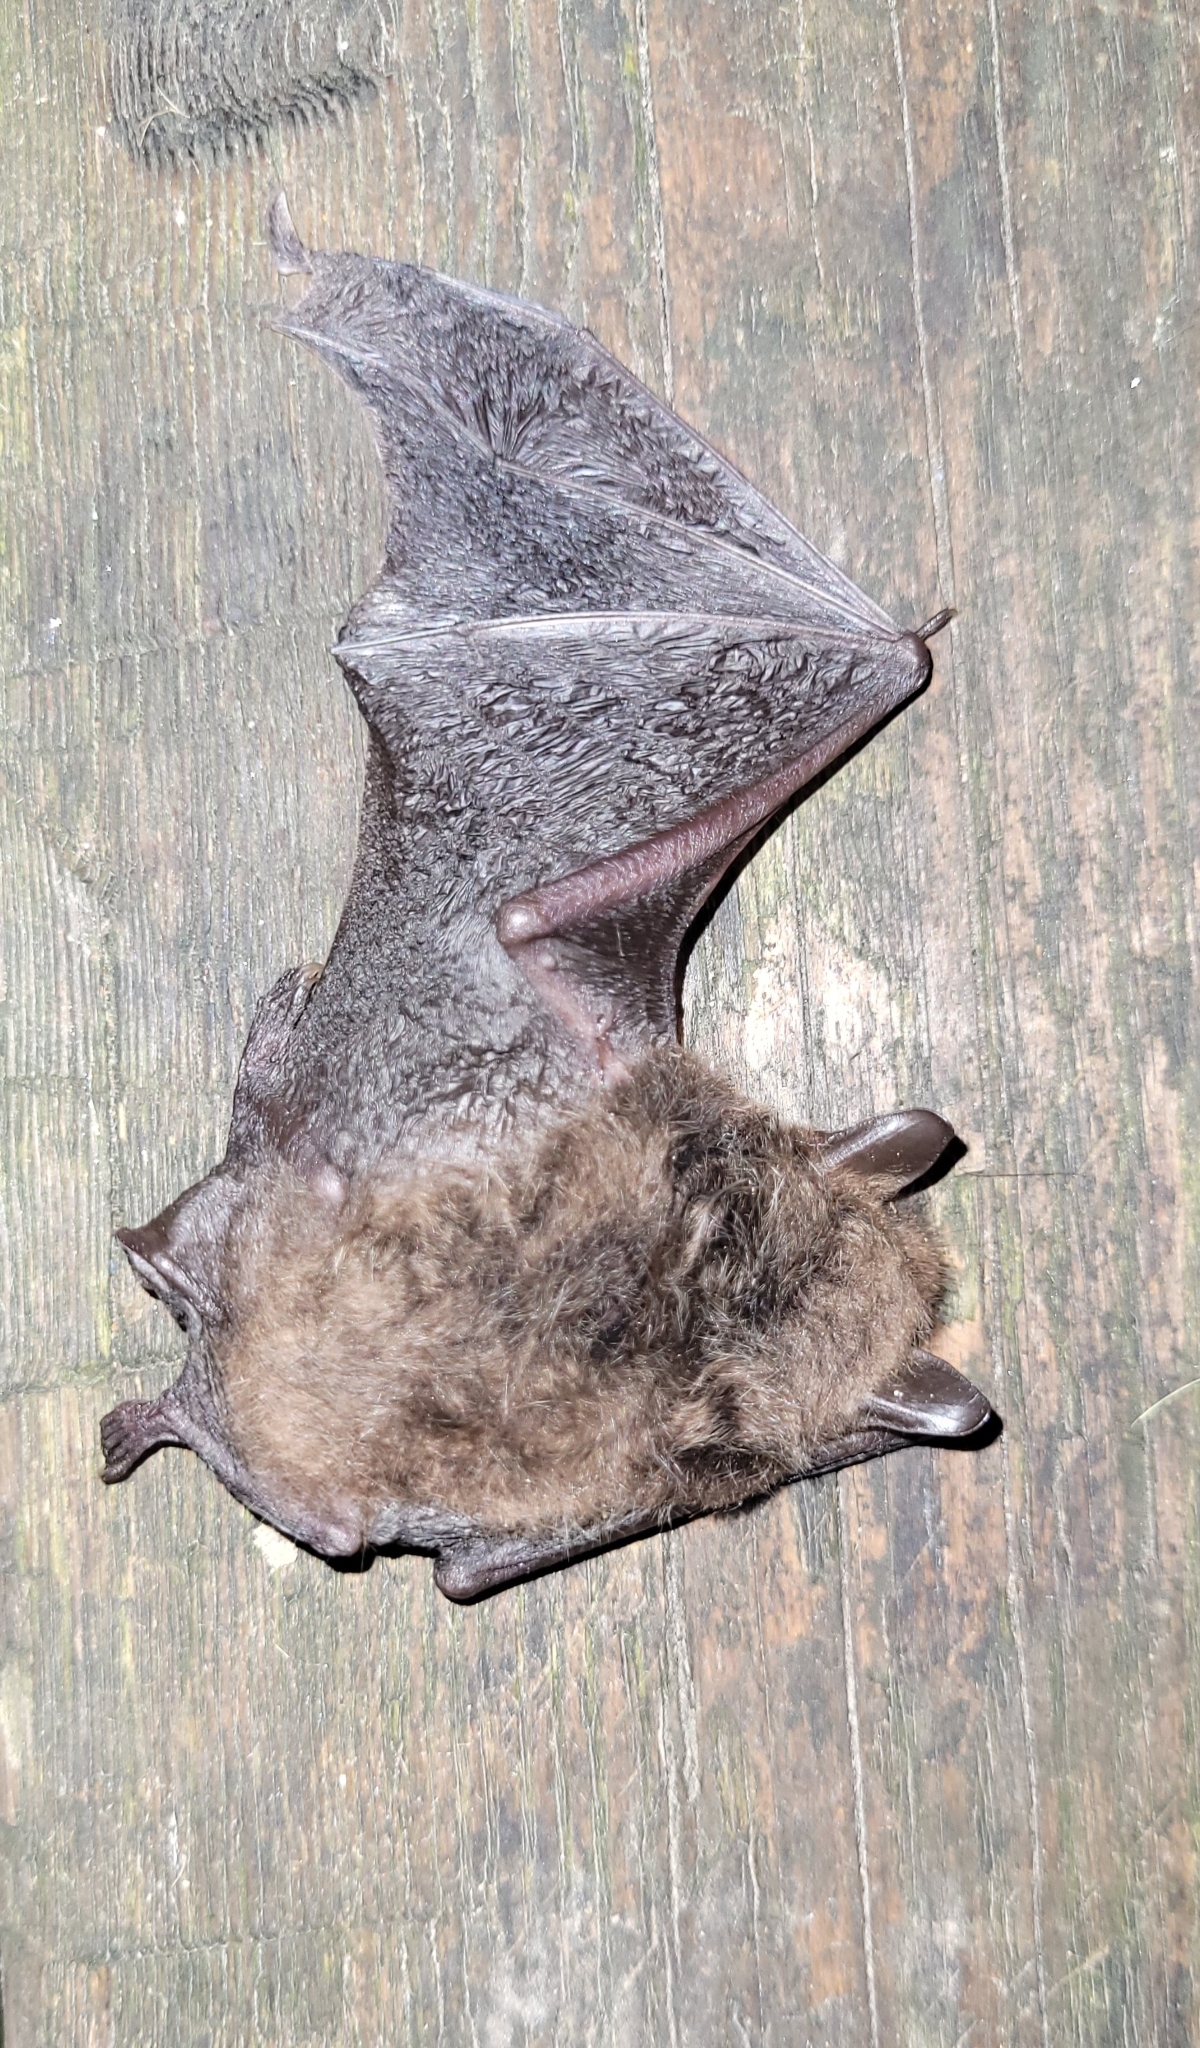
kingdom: Animalia
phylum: Chordata
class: Mammalia
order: Chiroptera
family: Vespertilionidae
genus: Myotis
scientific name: Myotis petax
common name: Russian myotis
